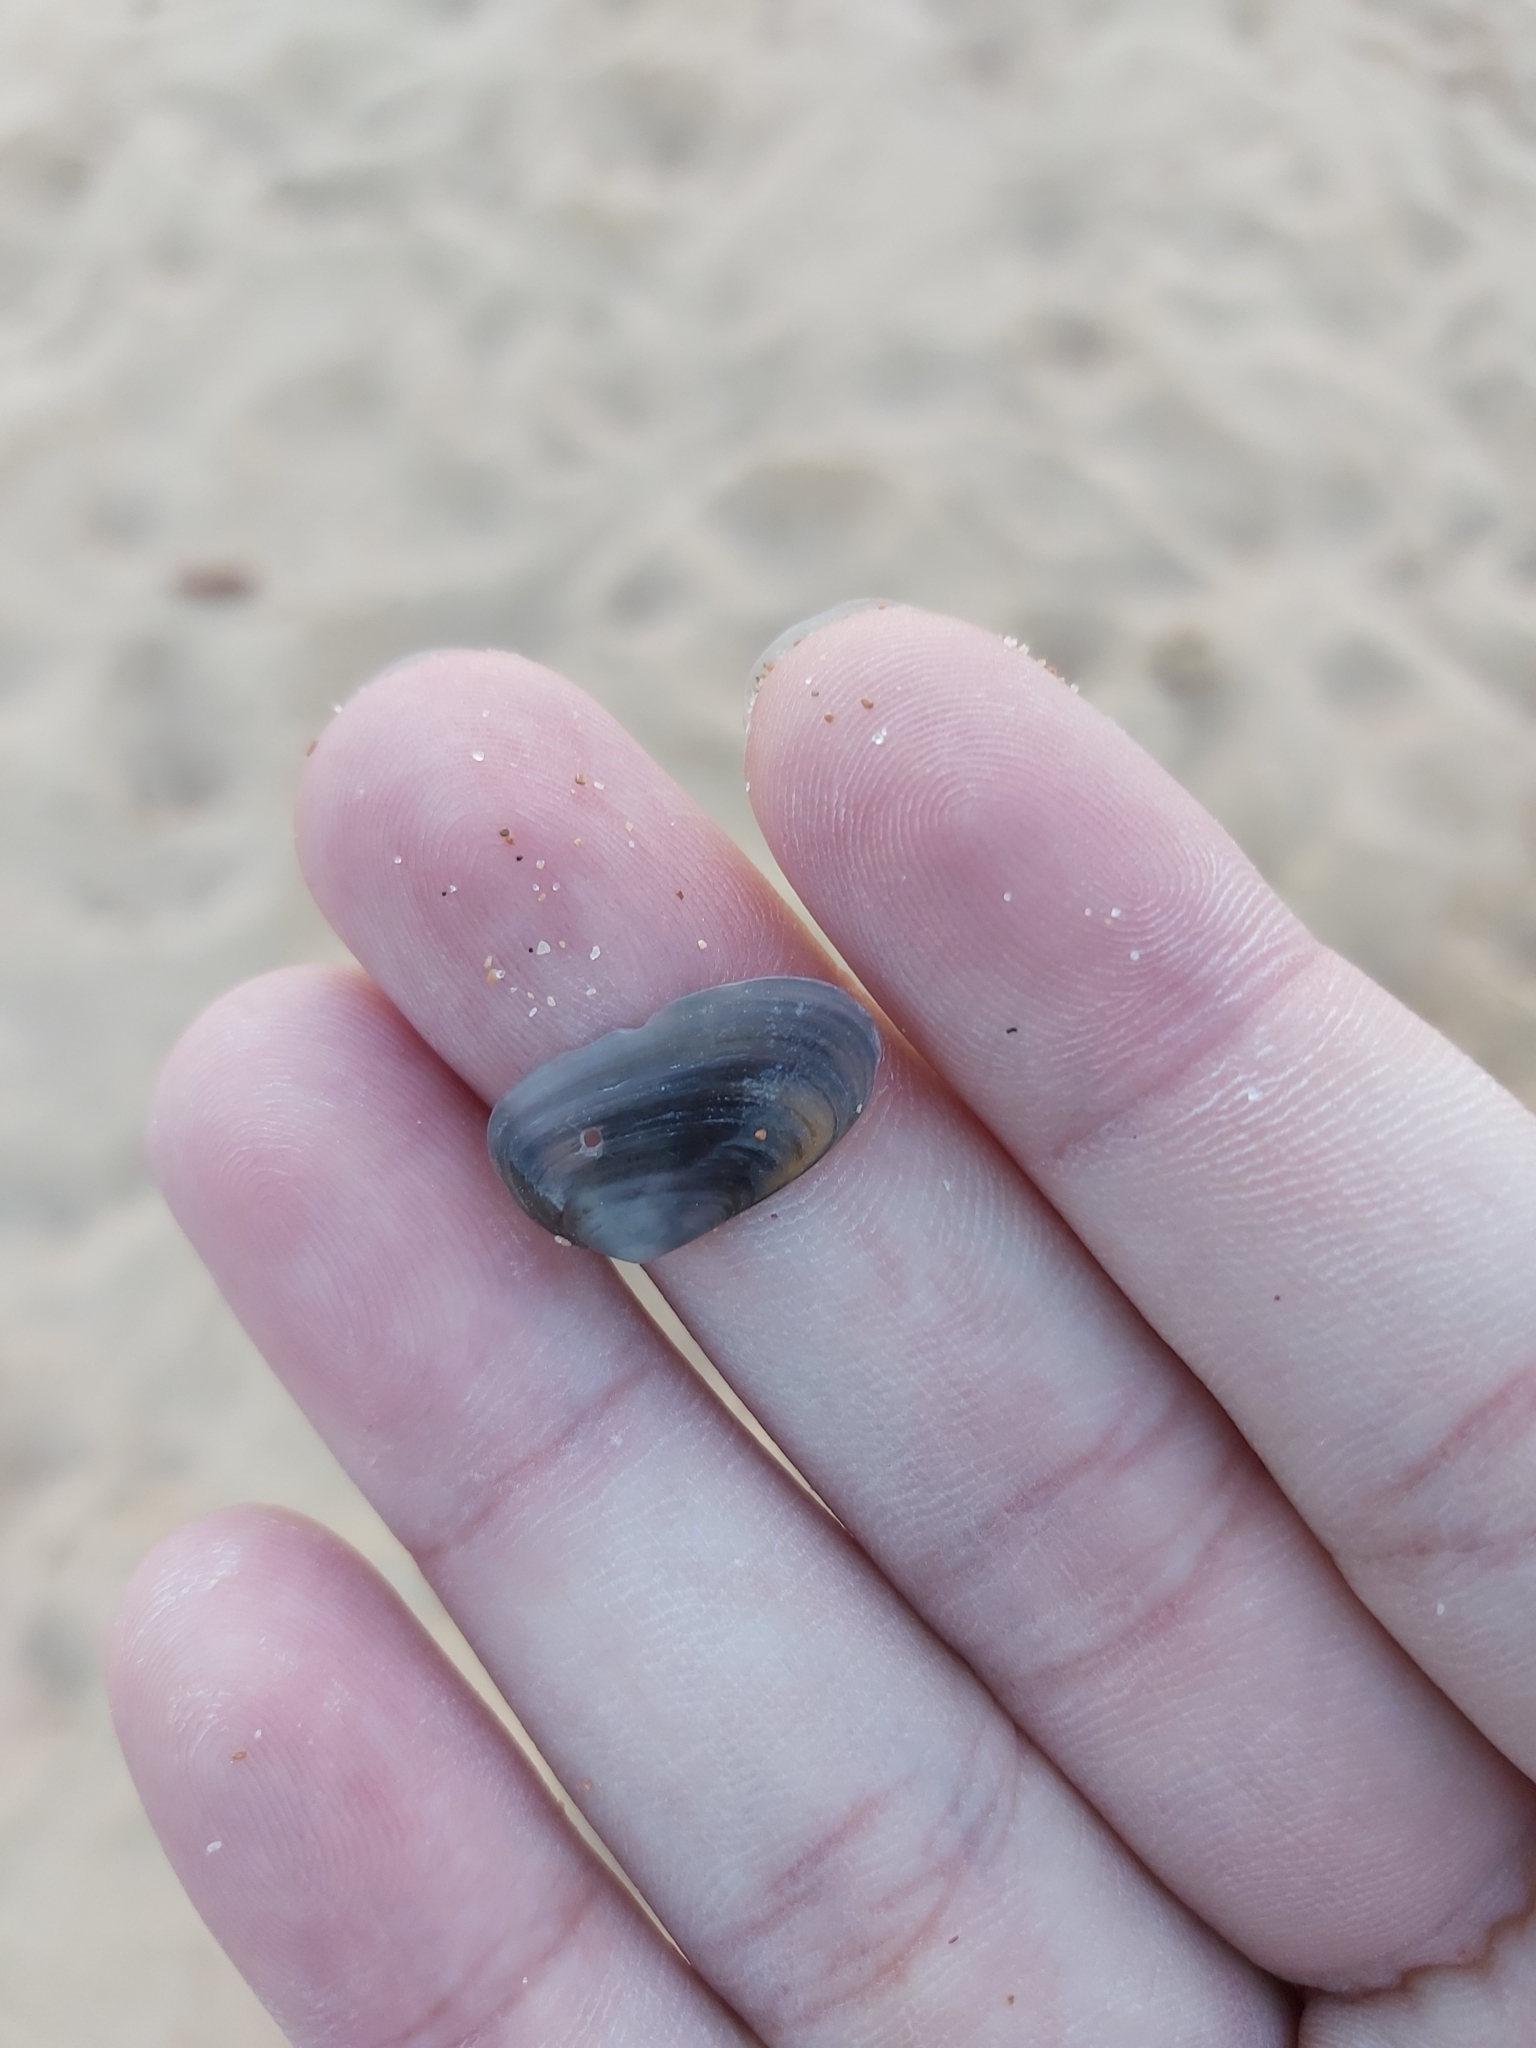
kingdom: Animalia
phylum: Mollusca
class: Bivalvia
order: Venerida
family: Mesodesmatidae
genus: Paphies
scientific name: Paphies angusta
